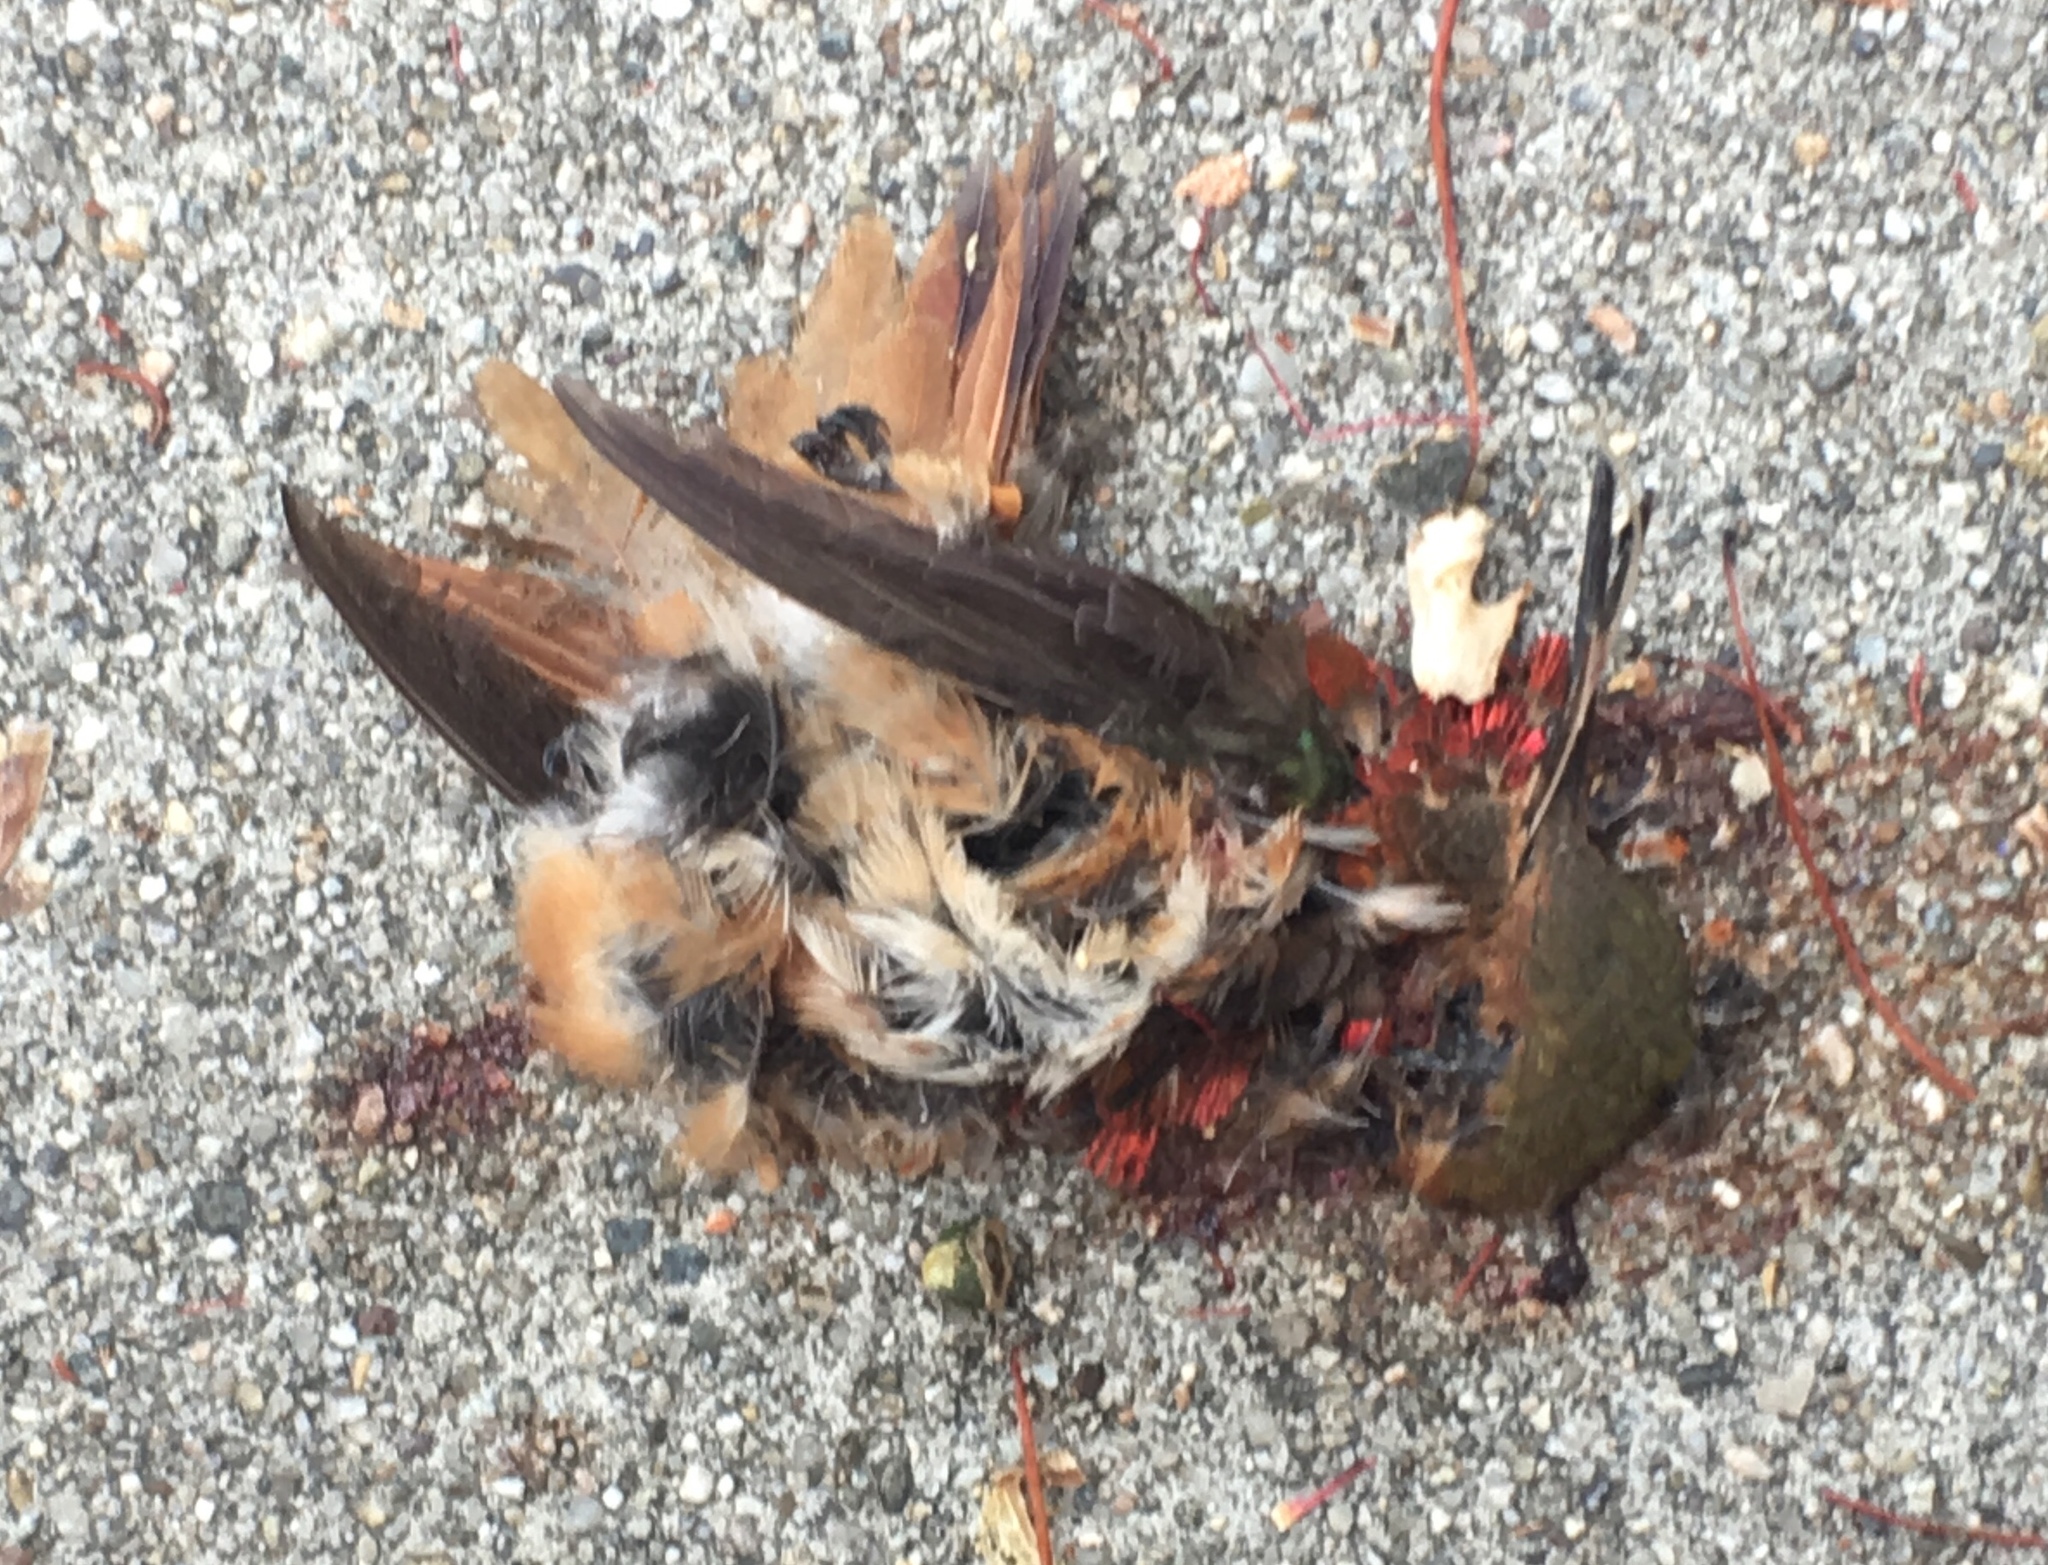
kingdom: Animalia
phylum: Chordata
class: Aves
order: Apodiformes
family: Trochilidae
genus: Selasphorus
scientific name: Selasphorus sasin
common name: Allen's hummingbird
